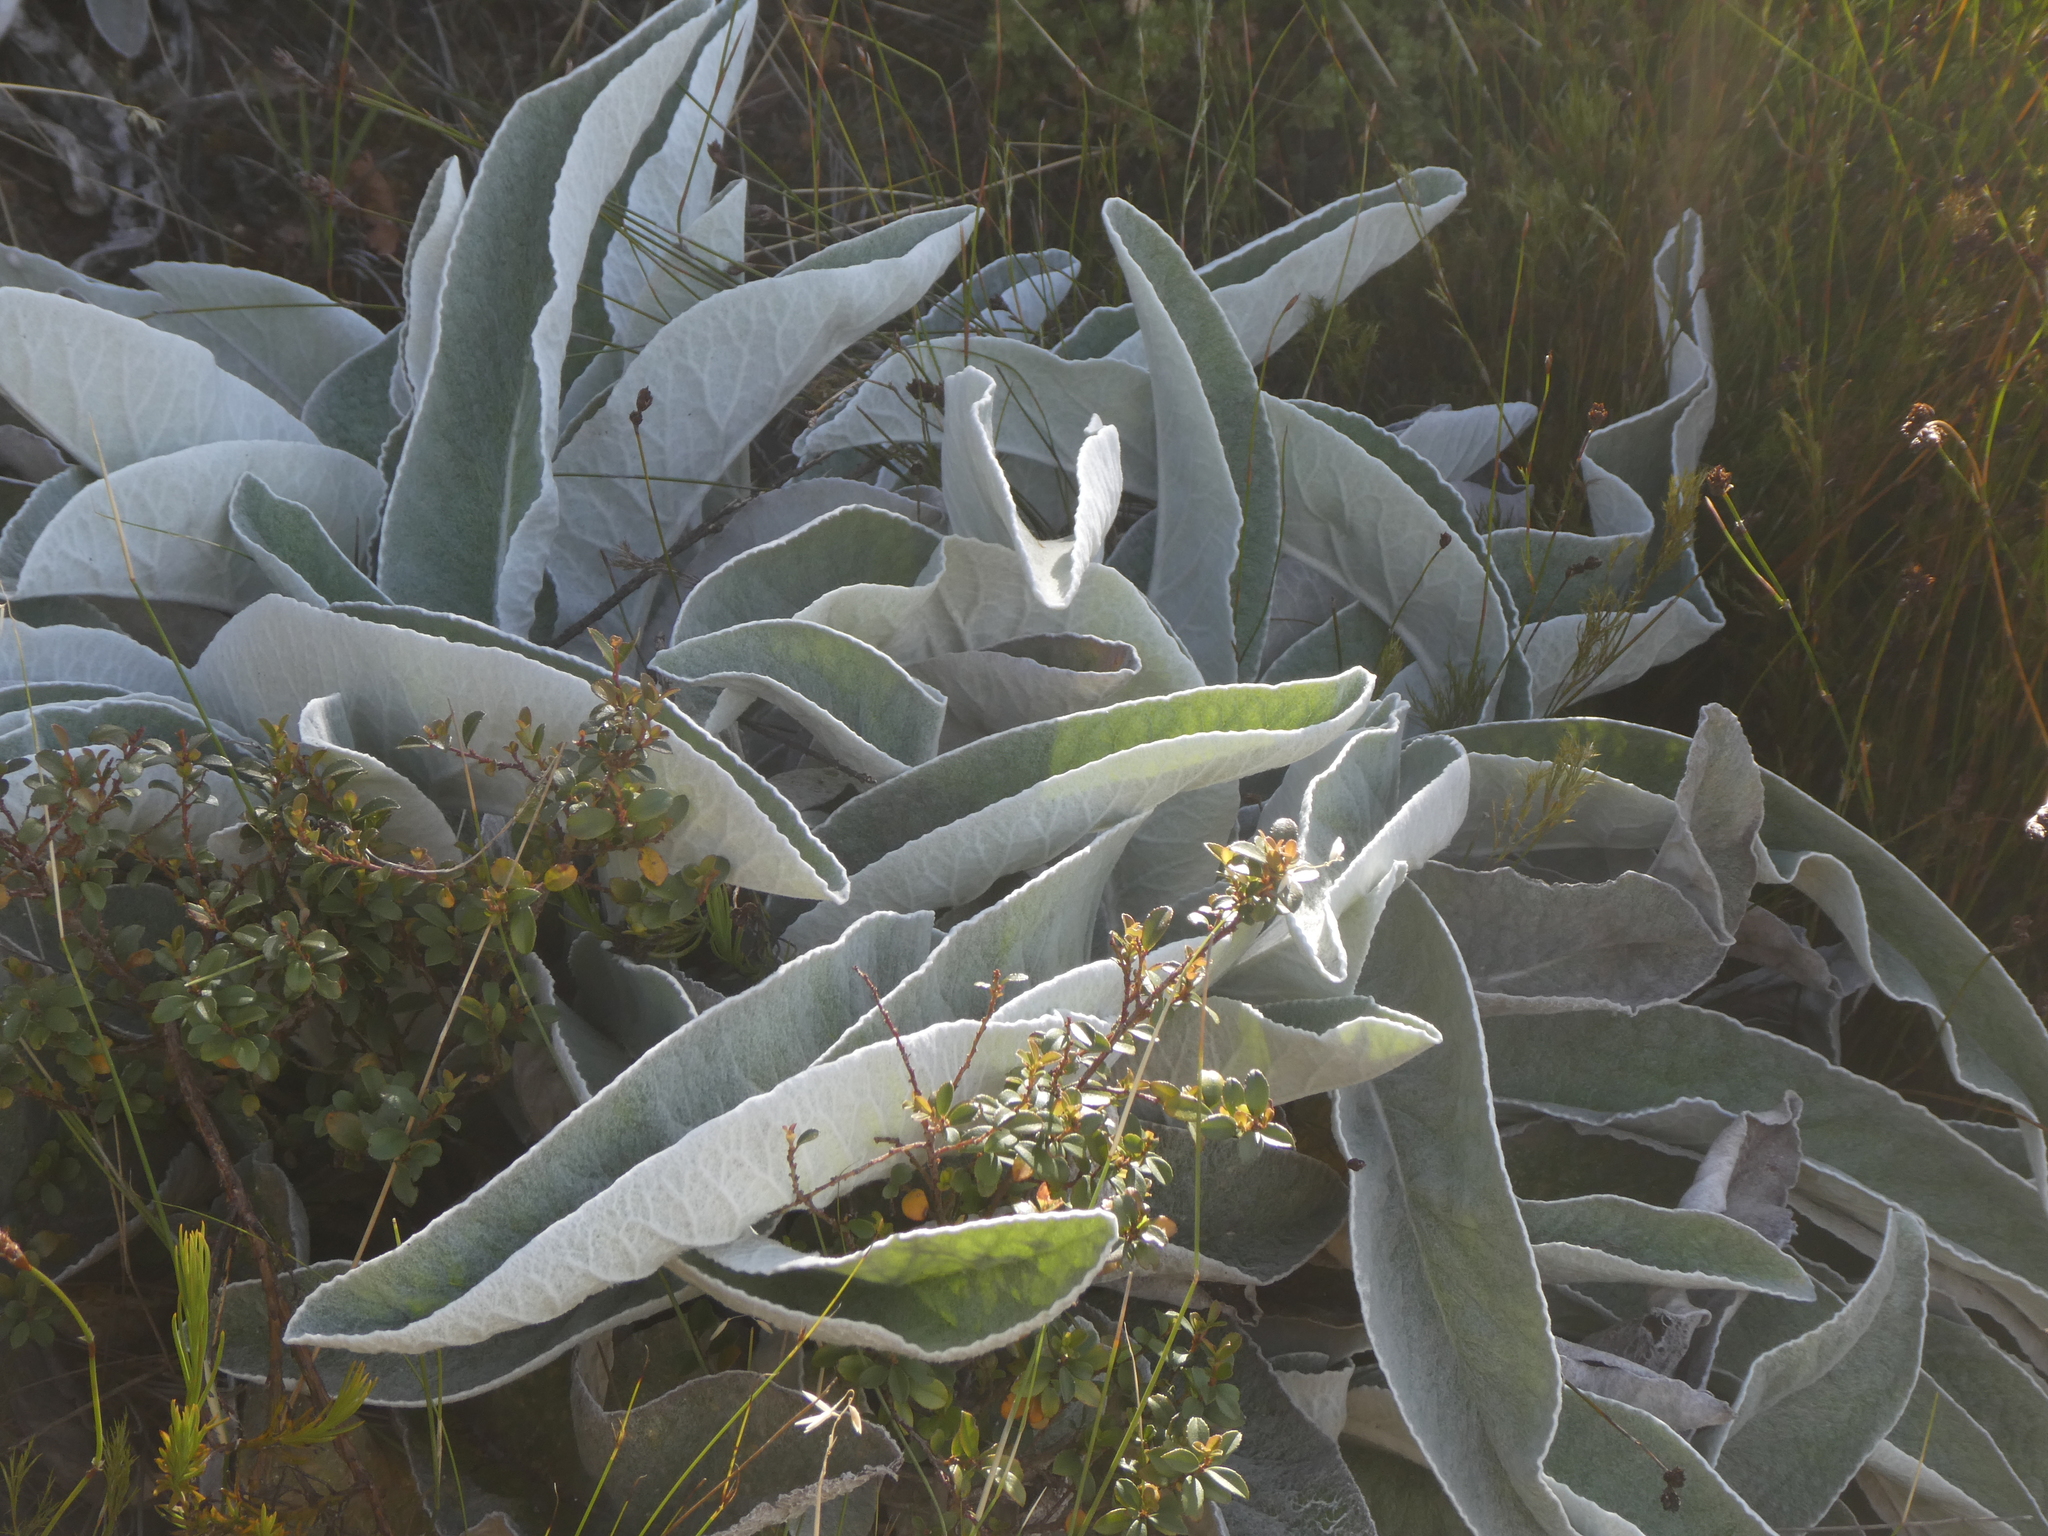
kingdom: Plantae
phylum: Tracheophyta
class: Magnoliopsida
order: Apiales
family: Apiaceae
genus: Hermas
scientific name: Hermas gigantea
